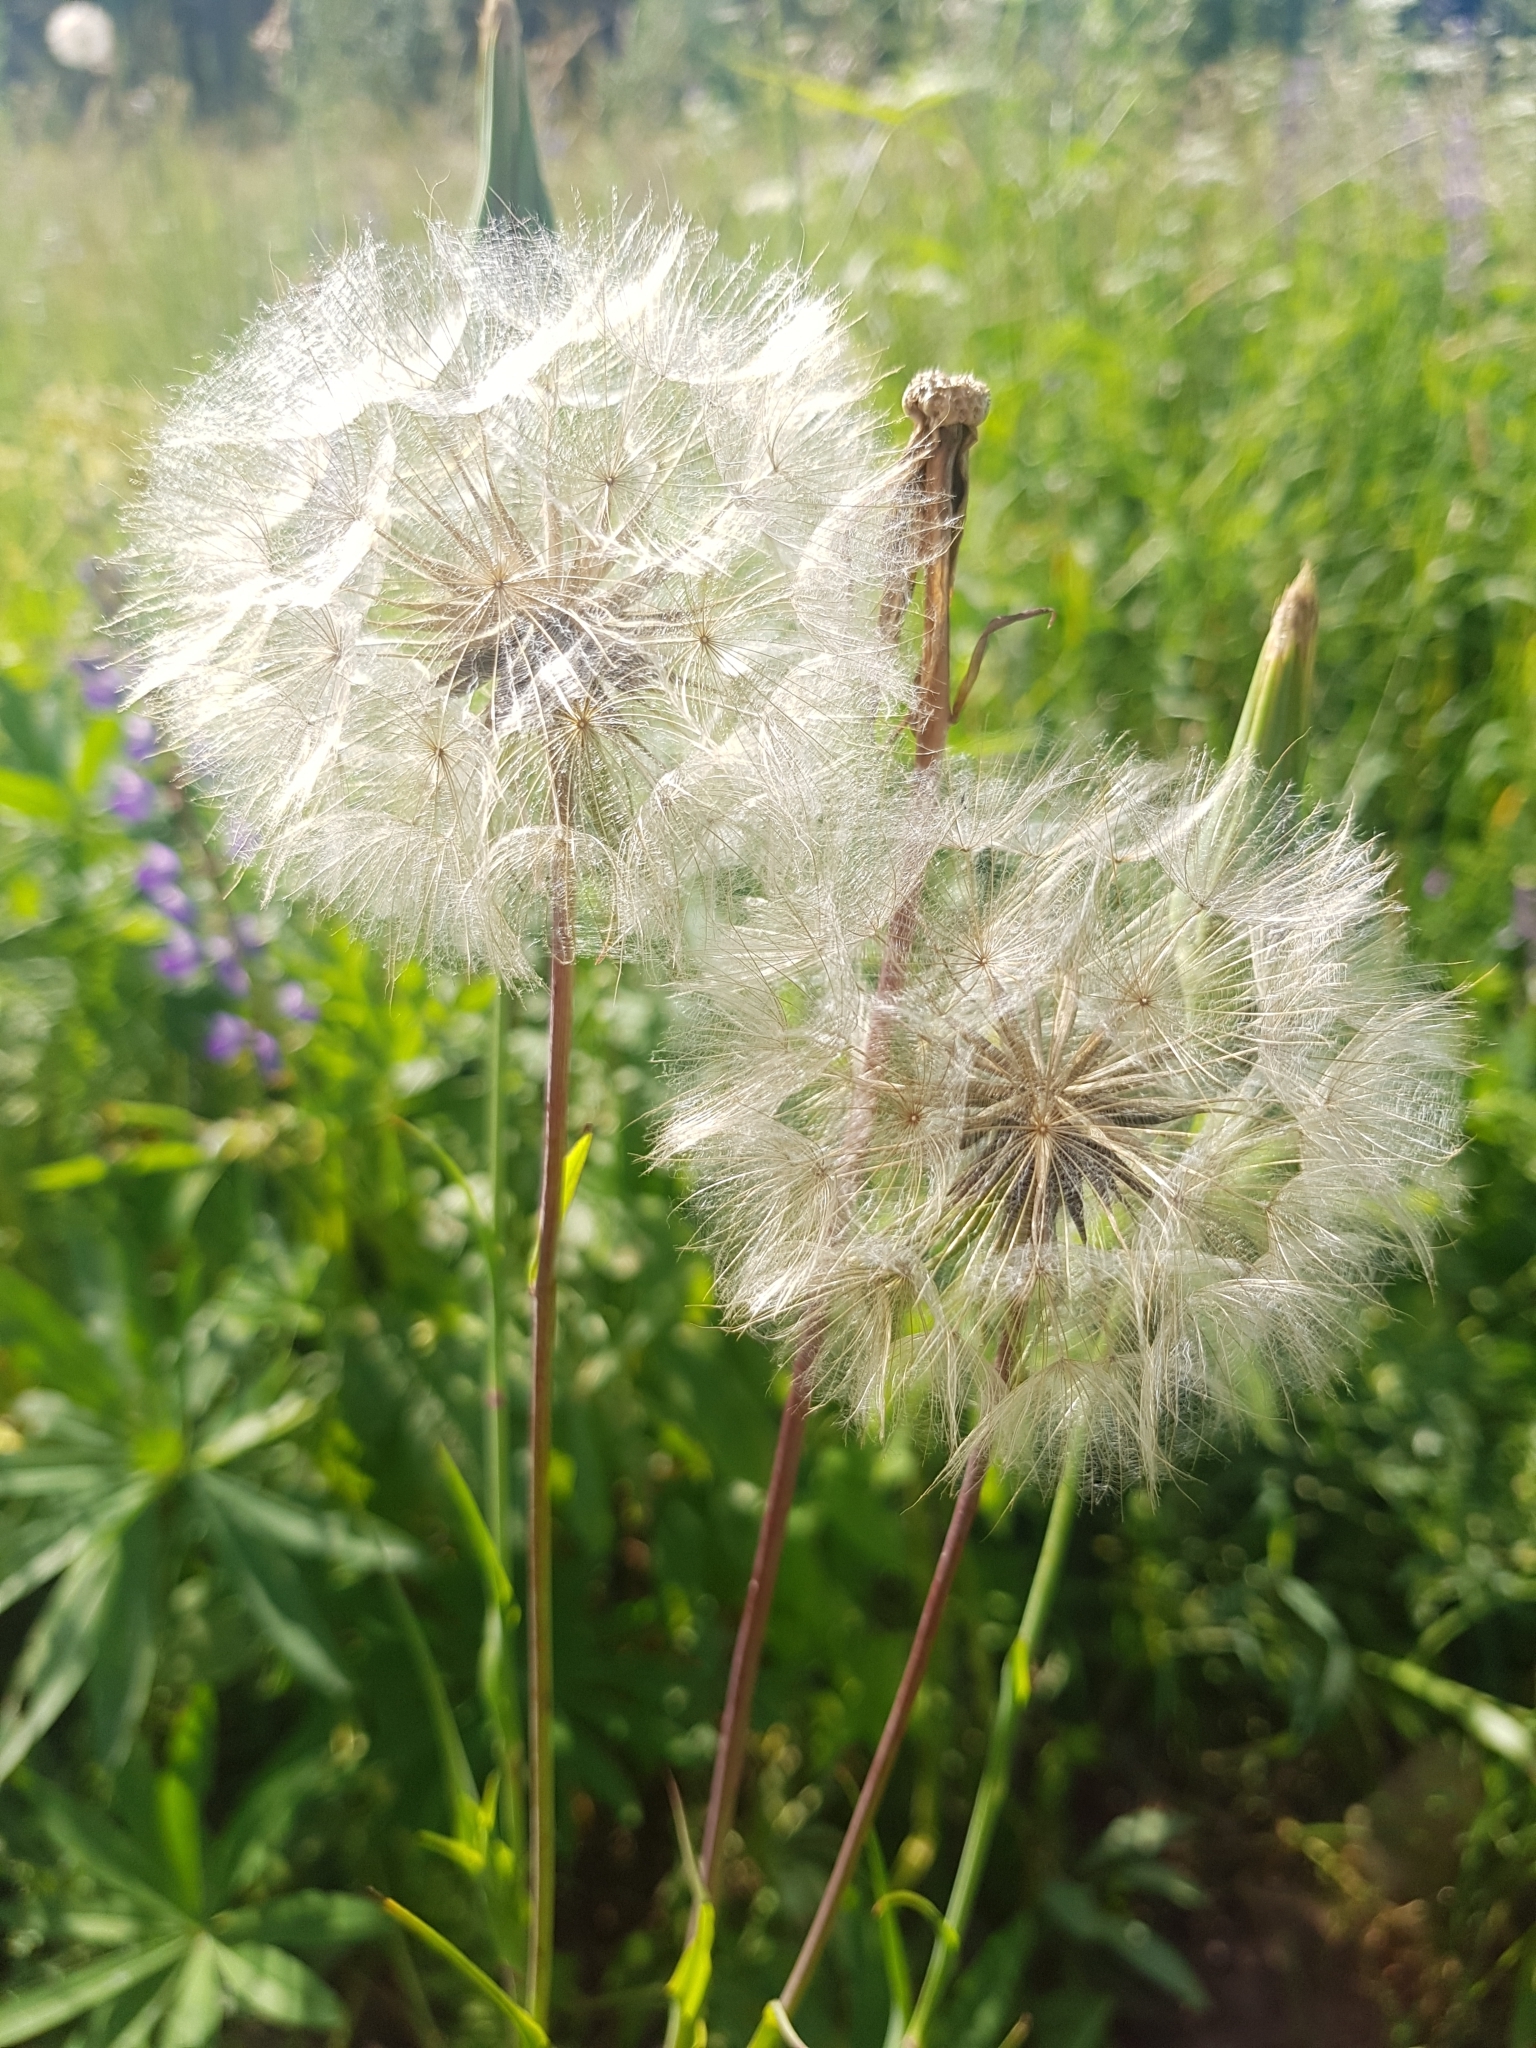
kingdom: Plantae
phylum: Tracheophyta
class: Magnoliopsida
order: Asterales
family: Asteraceae
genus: Tragopogon
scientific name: Tragopogon pratensis
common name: Goat's-beard
